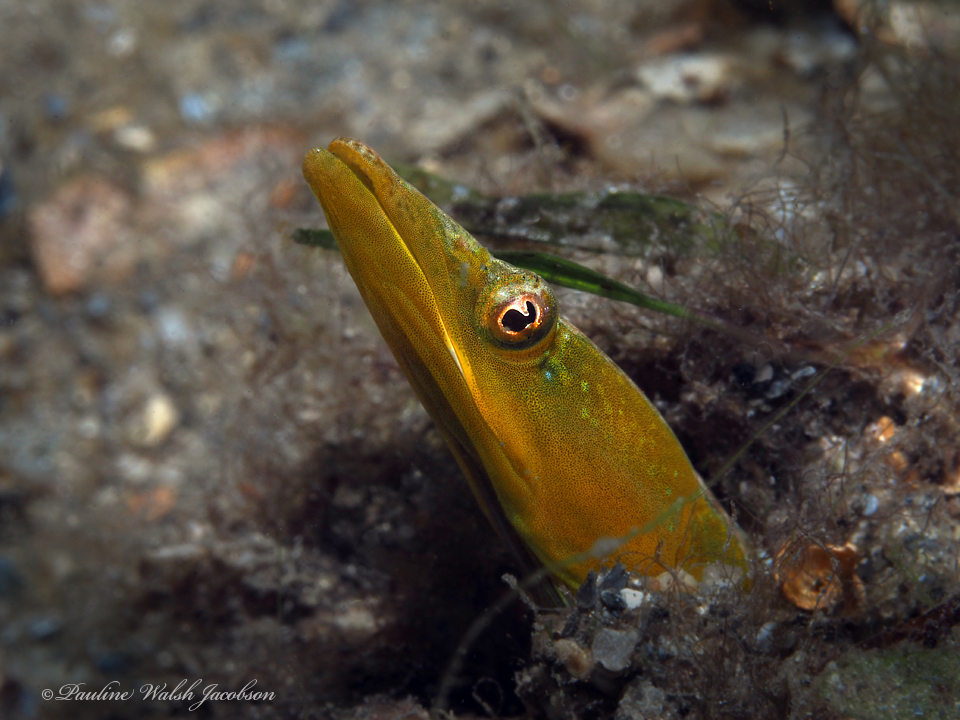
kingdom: Animalia
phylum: Chordata
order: Perciformes
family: Chaenopsidae
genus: Chaenopsis
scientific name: Chaenopsis ocellata
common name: Bluethroat pikeblenny
